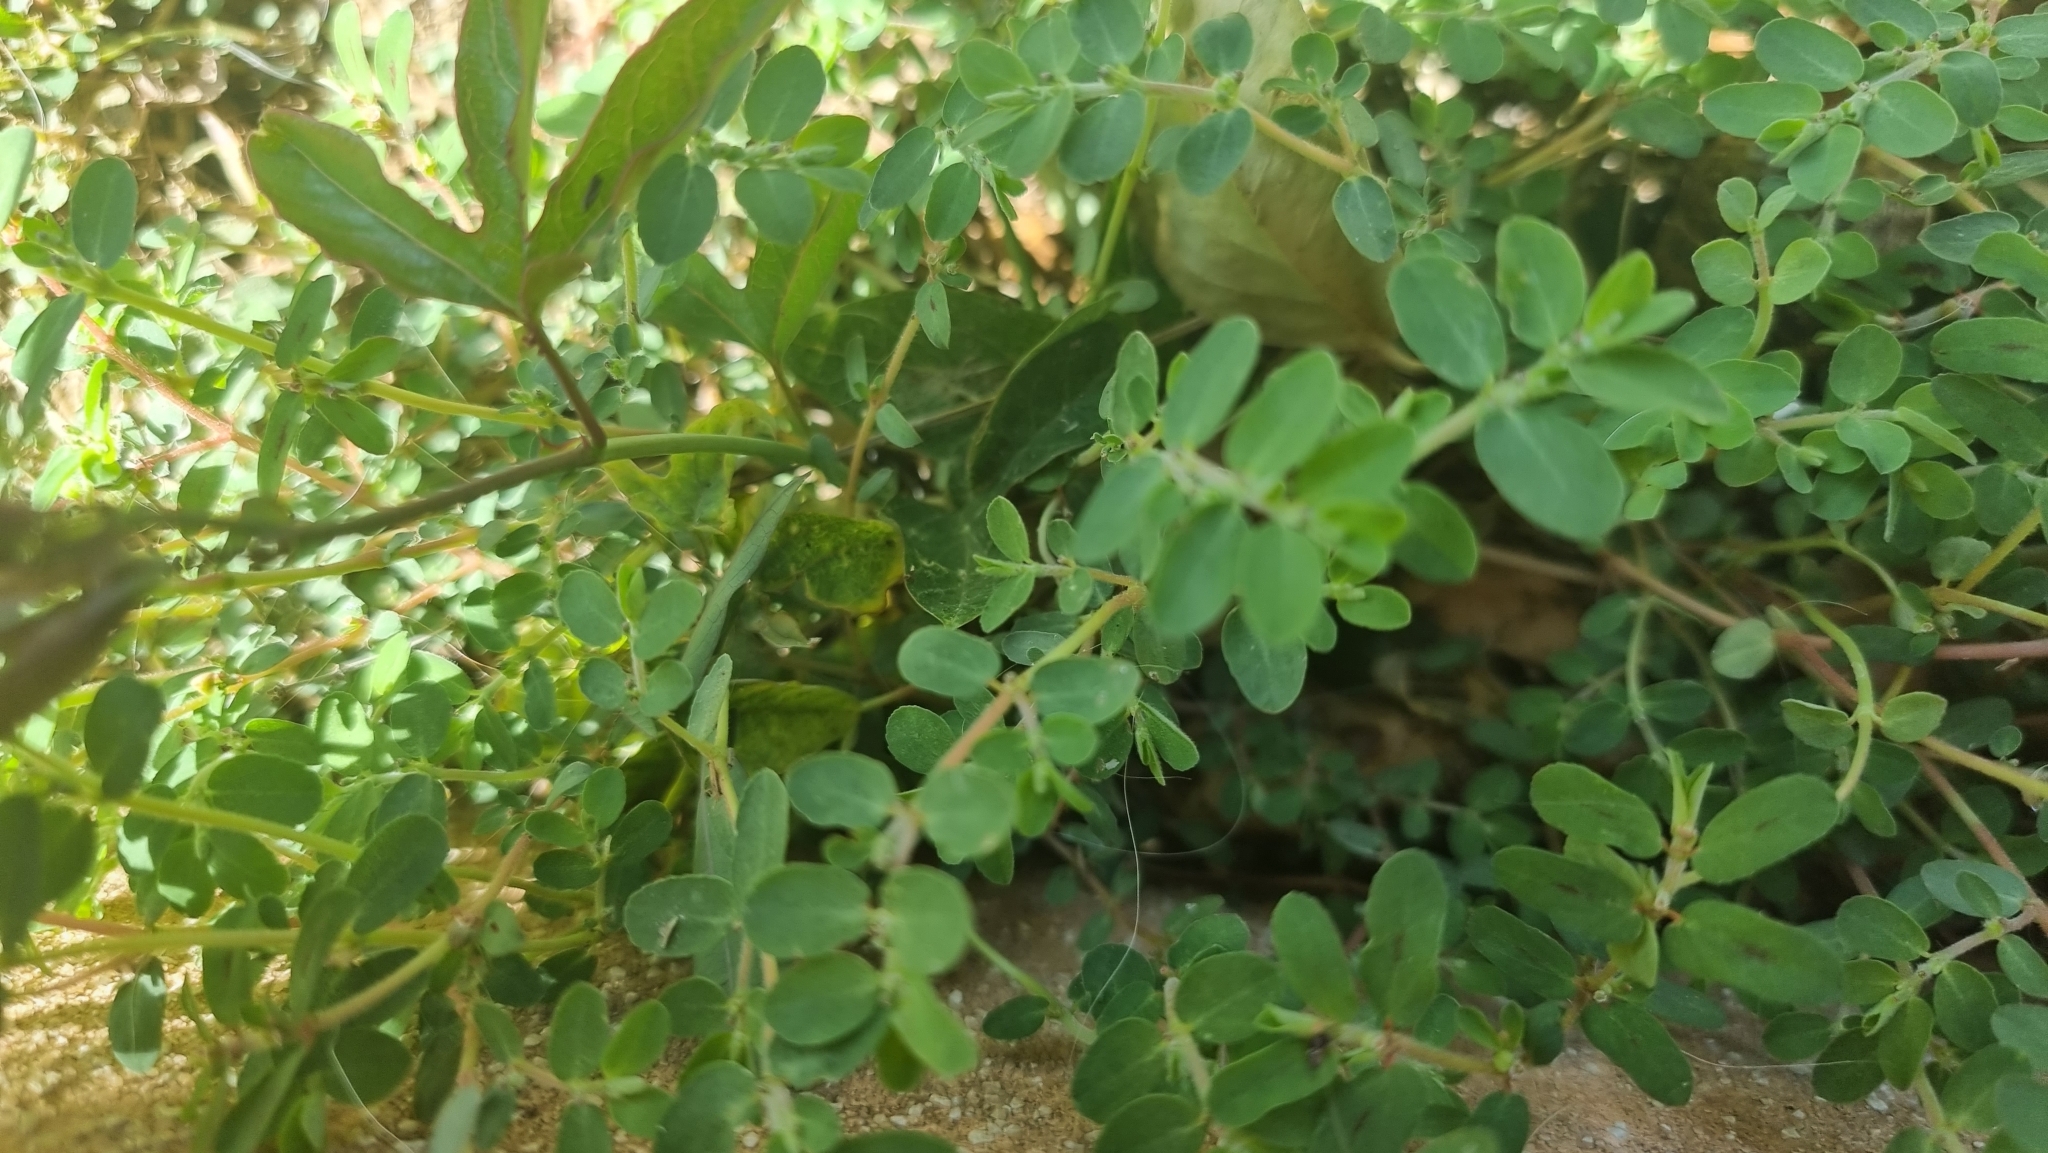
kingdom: Plantae
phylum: Tracheophyta
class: Magnoliopsida
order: Malpighiales
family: Euphorbiaceae
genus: Euphorbia
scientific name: Euphorbia prostrata
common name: Prostrate sandmat
